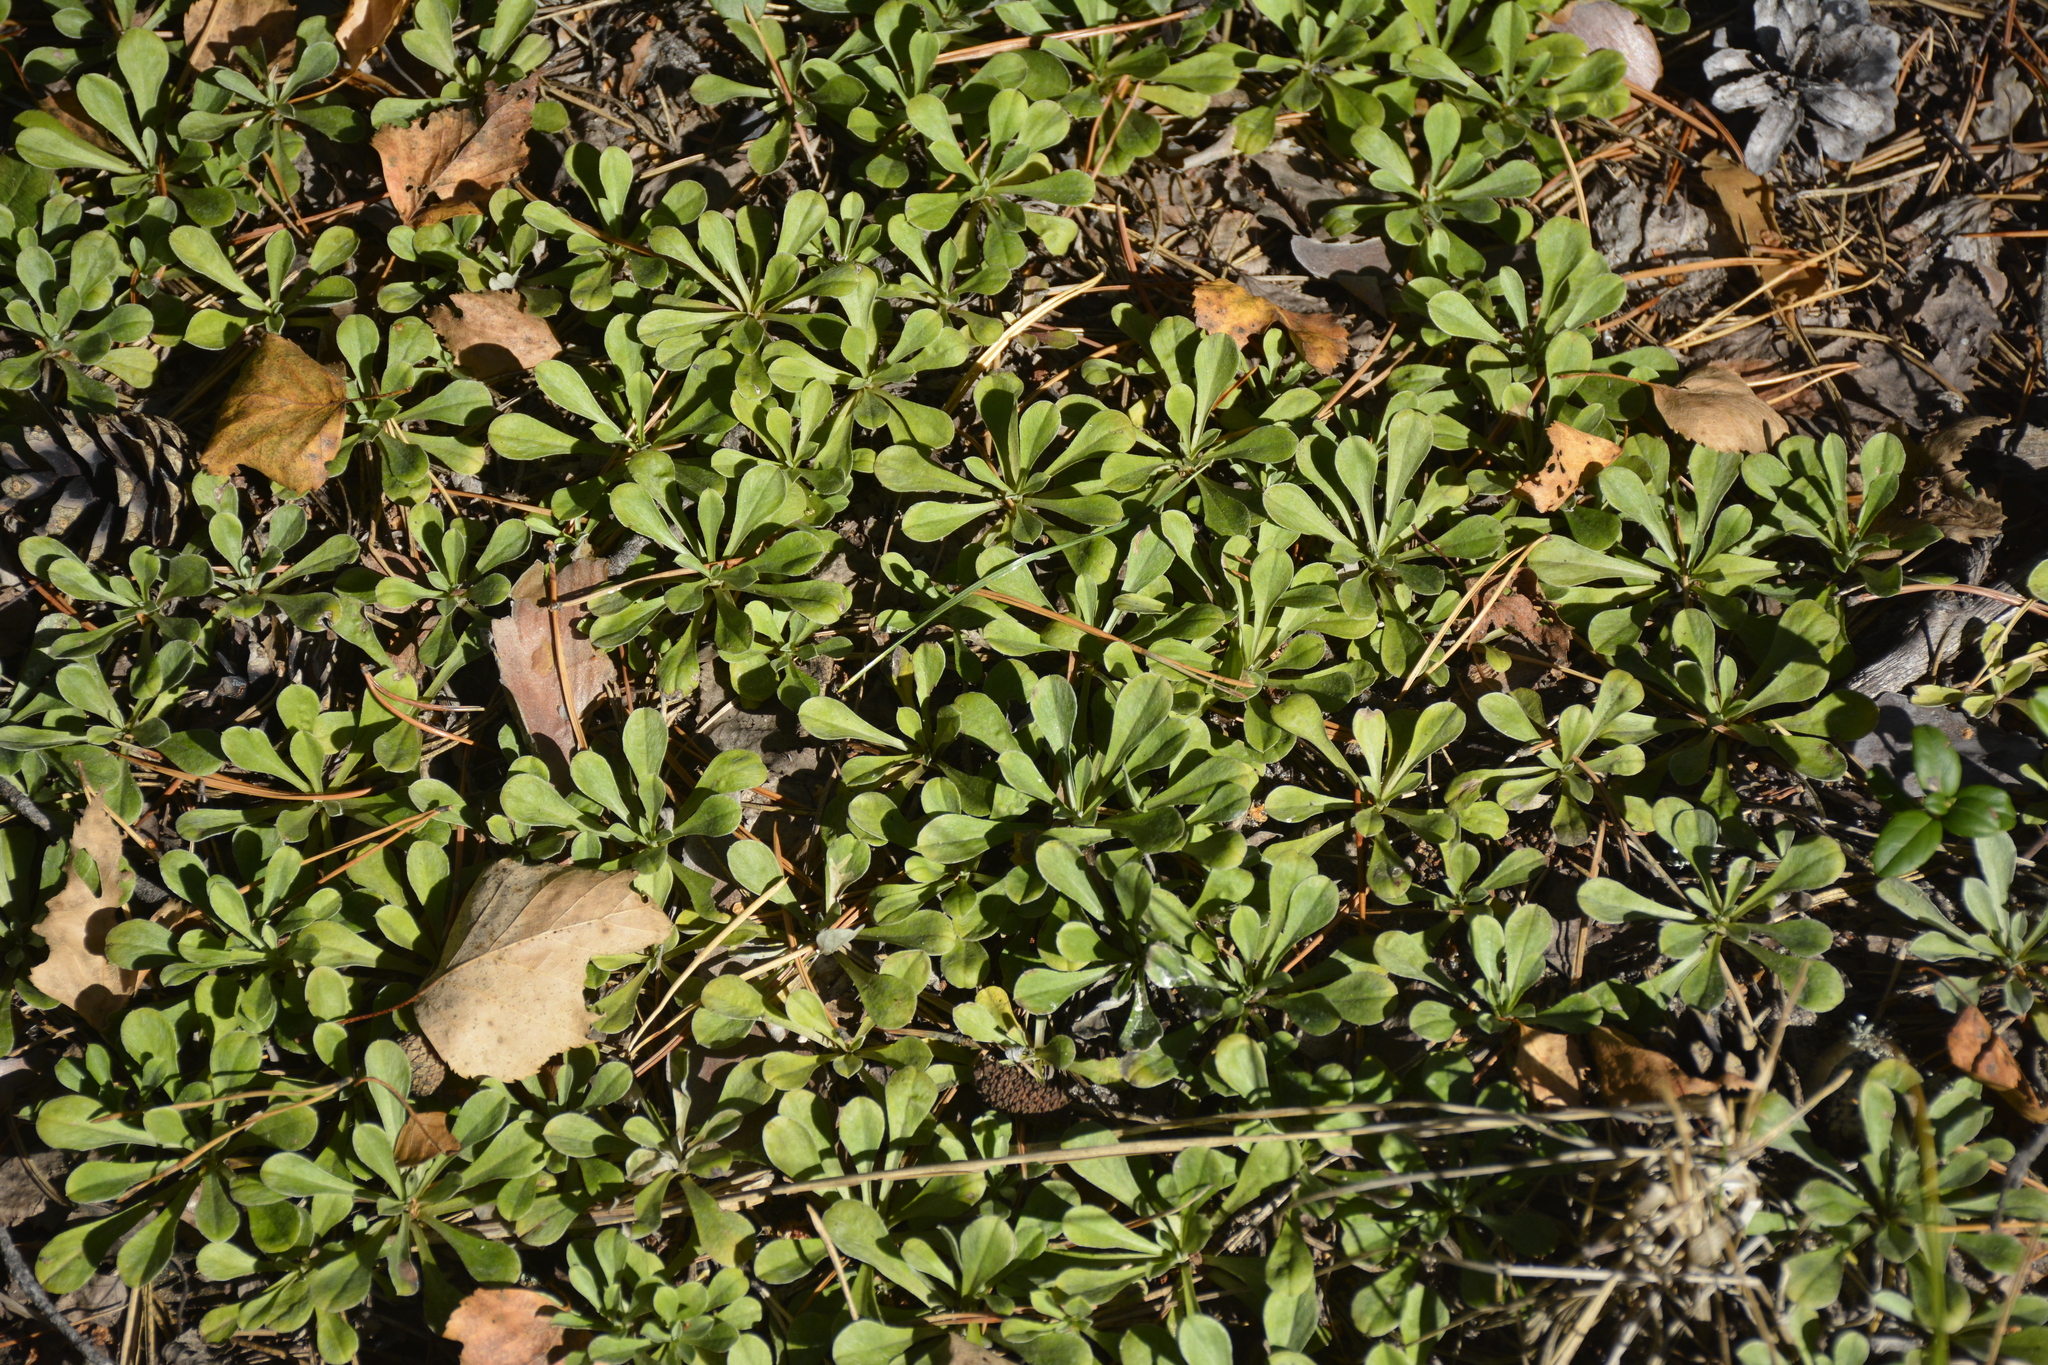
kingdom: Plantae
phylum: Tracheophyta
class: Magnoliopsida
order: Asterales
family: Asteraceae
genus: Antennaria
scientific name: Antennaria dioica
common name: Mountain everlasting
